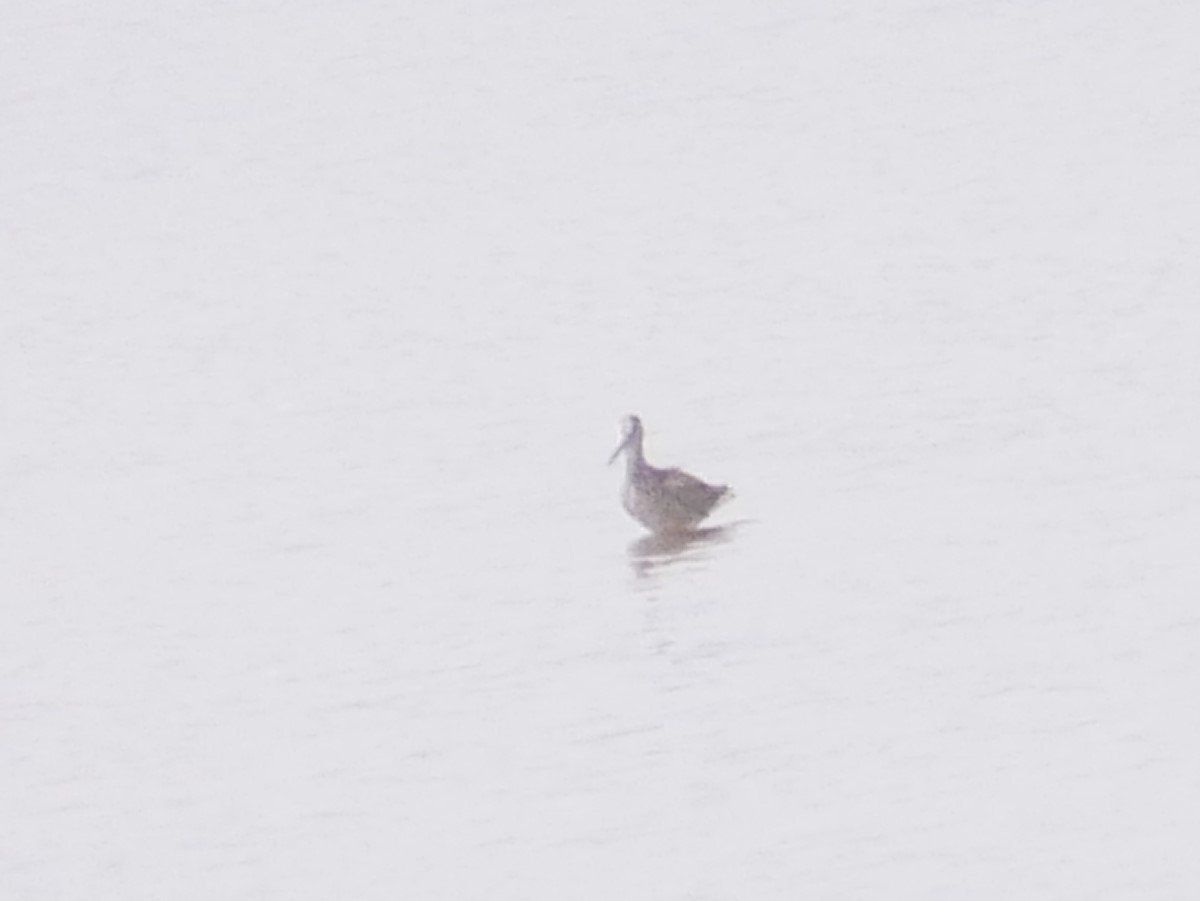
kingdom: Animalia
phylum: Chordata
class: Aves
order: Charadriiformes
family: Scolopacidae
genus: Tringa
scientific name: Tringa melanoleuca
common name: Greater yellowlegs
